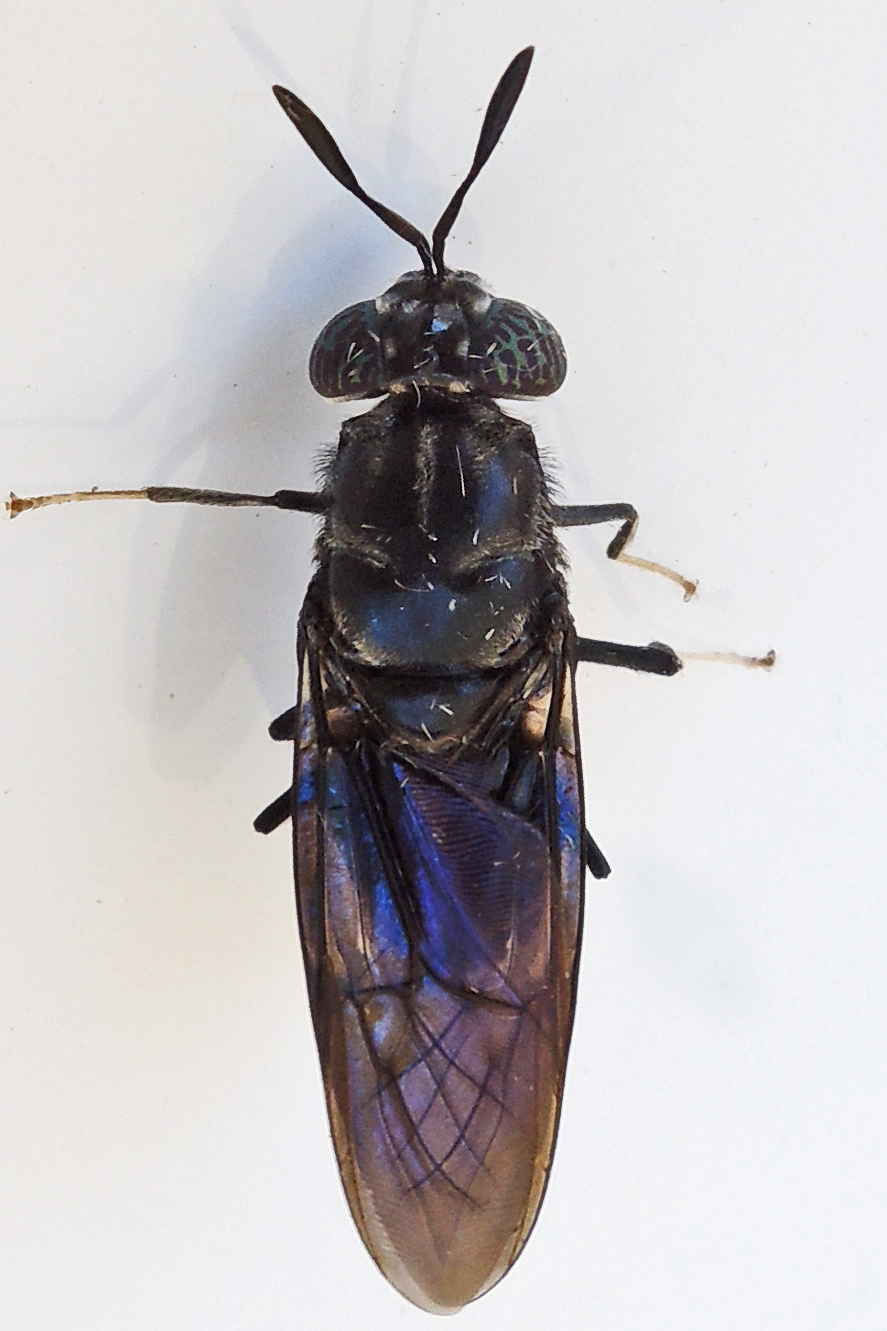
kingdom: Animalia
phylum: Arthropoda
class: Insecta
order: Diptera
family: Stratiomyidae
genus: Hermetia
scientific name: Hermetia illucens
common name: Black soldier fly
